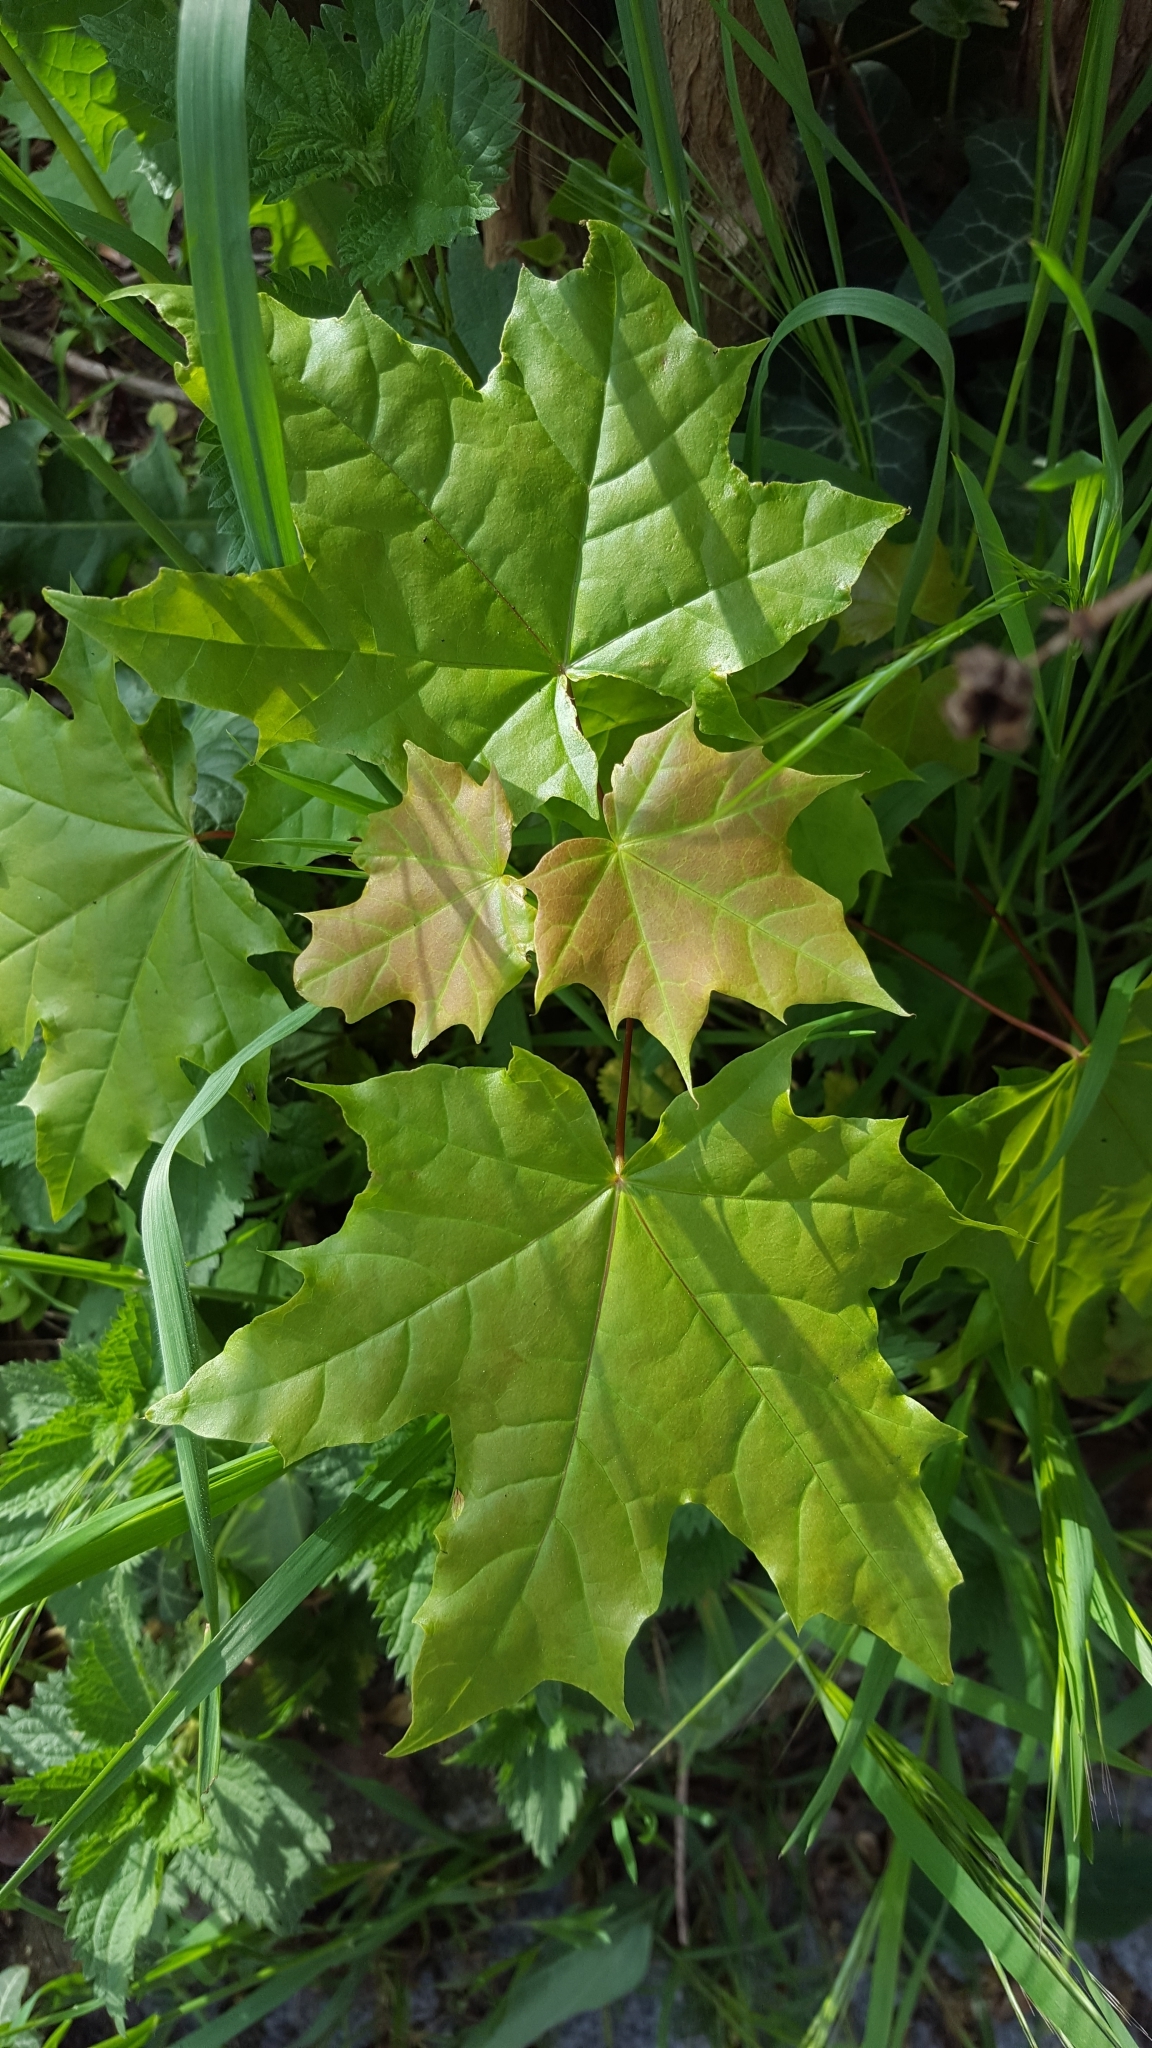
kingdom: Plantae
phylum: Tracheophyta
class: Magnoliopsida
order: Sapindales
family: Sapindaceae
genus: Acer
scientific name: Acer platanoides
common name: Norway maple
